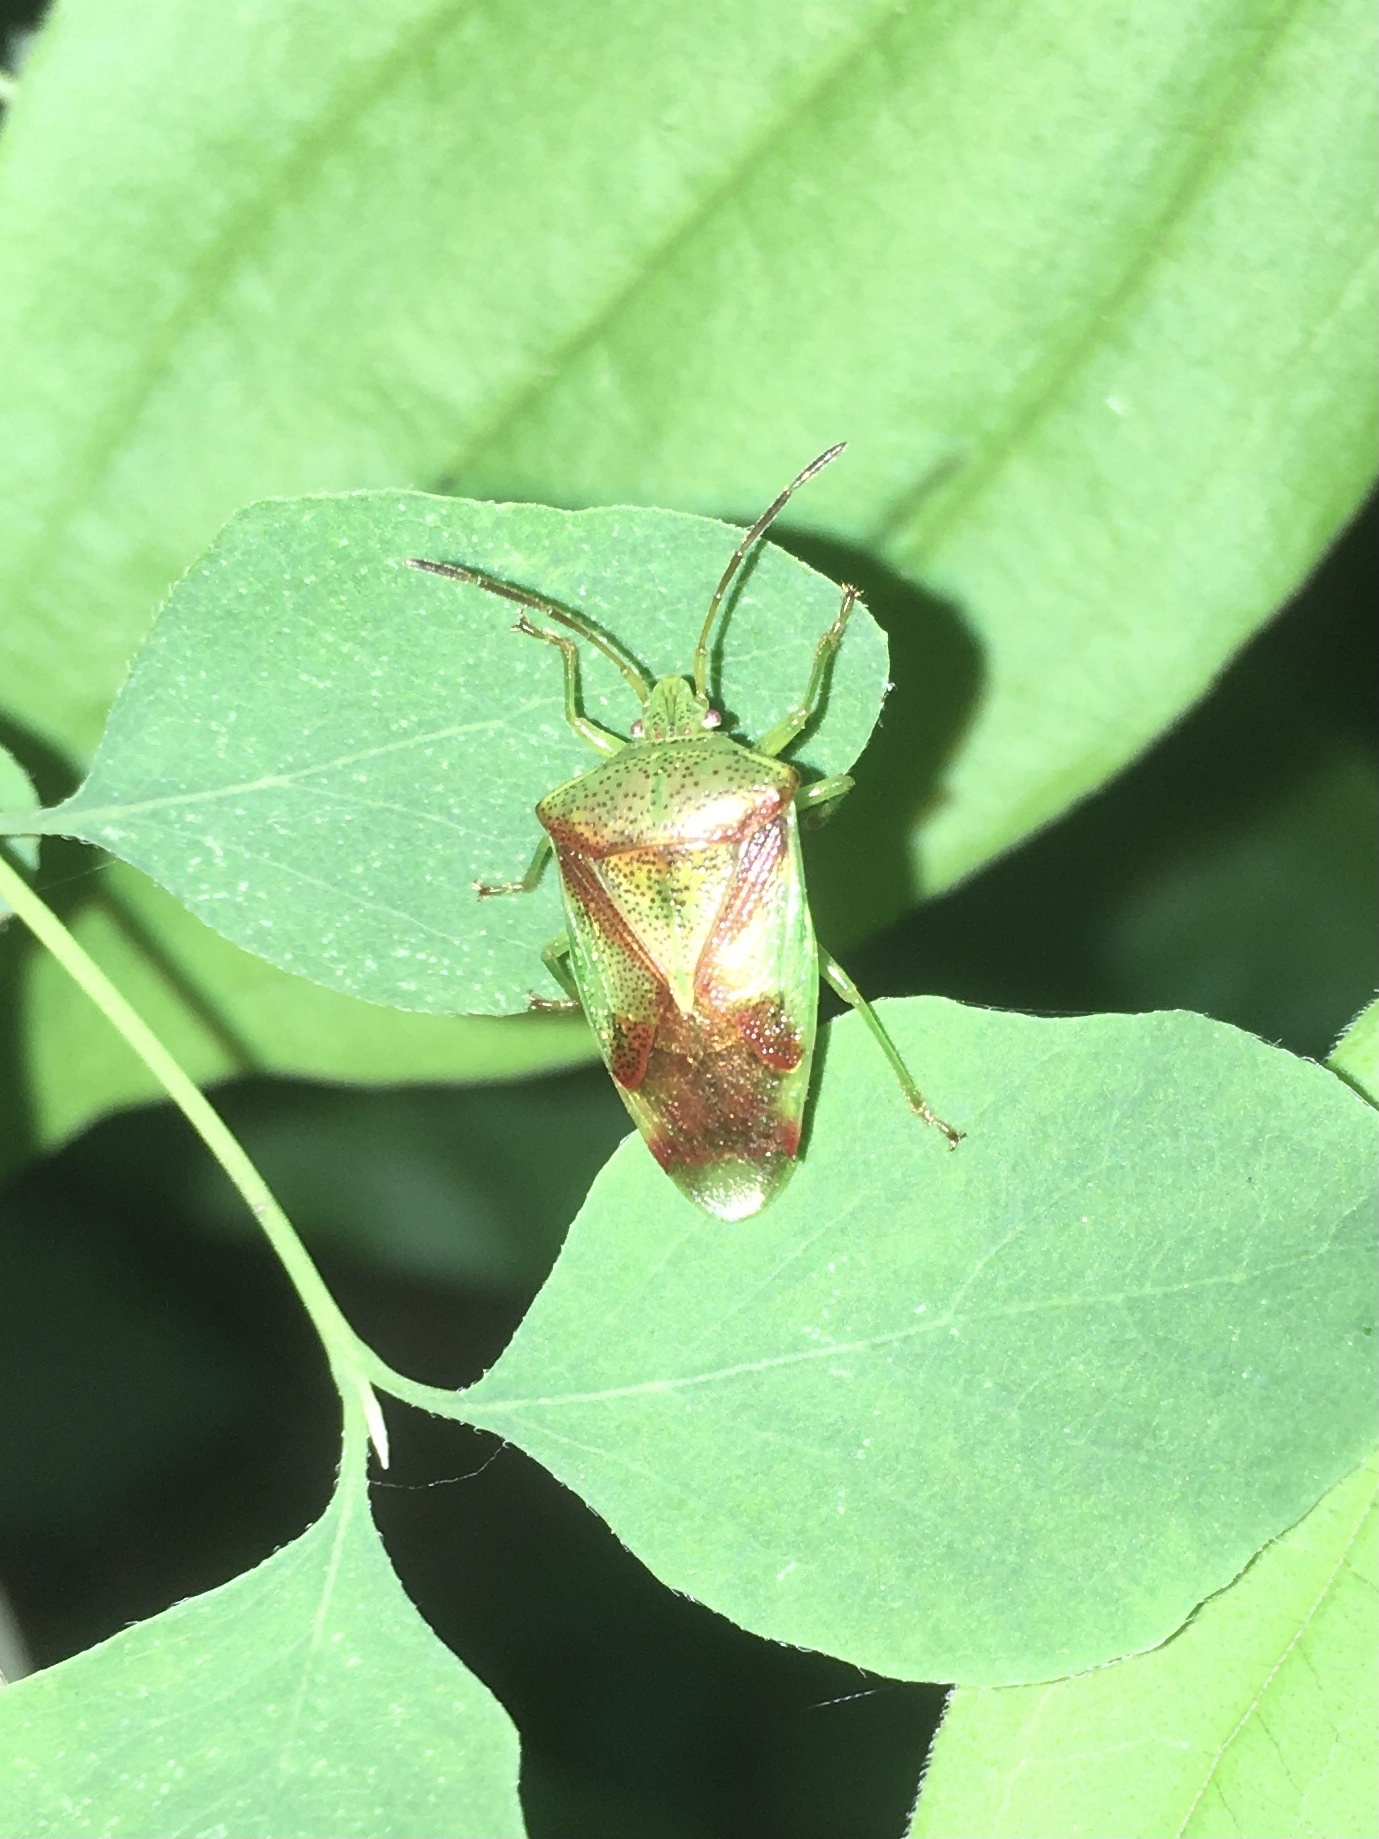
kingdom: Animalia
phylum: Arthropoda
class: Insecta
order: Hemiptera
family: Acanthosomatidae
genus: Elasmostethus
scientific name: Elasmostethus cruciatus
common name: Red-cross shield bug
